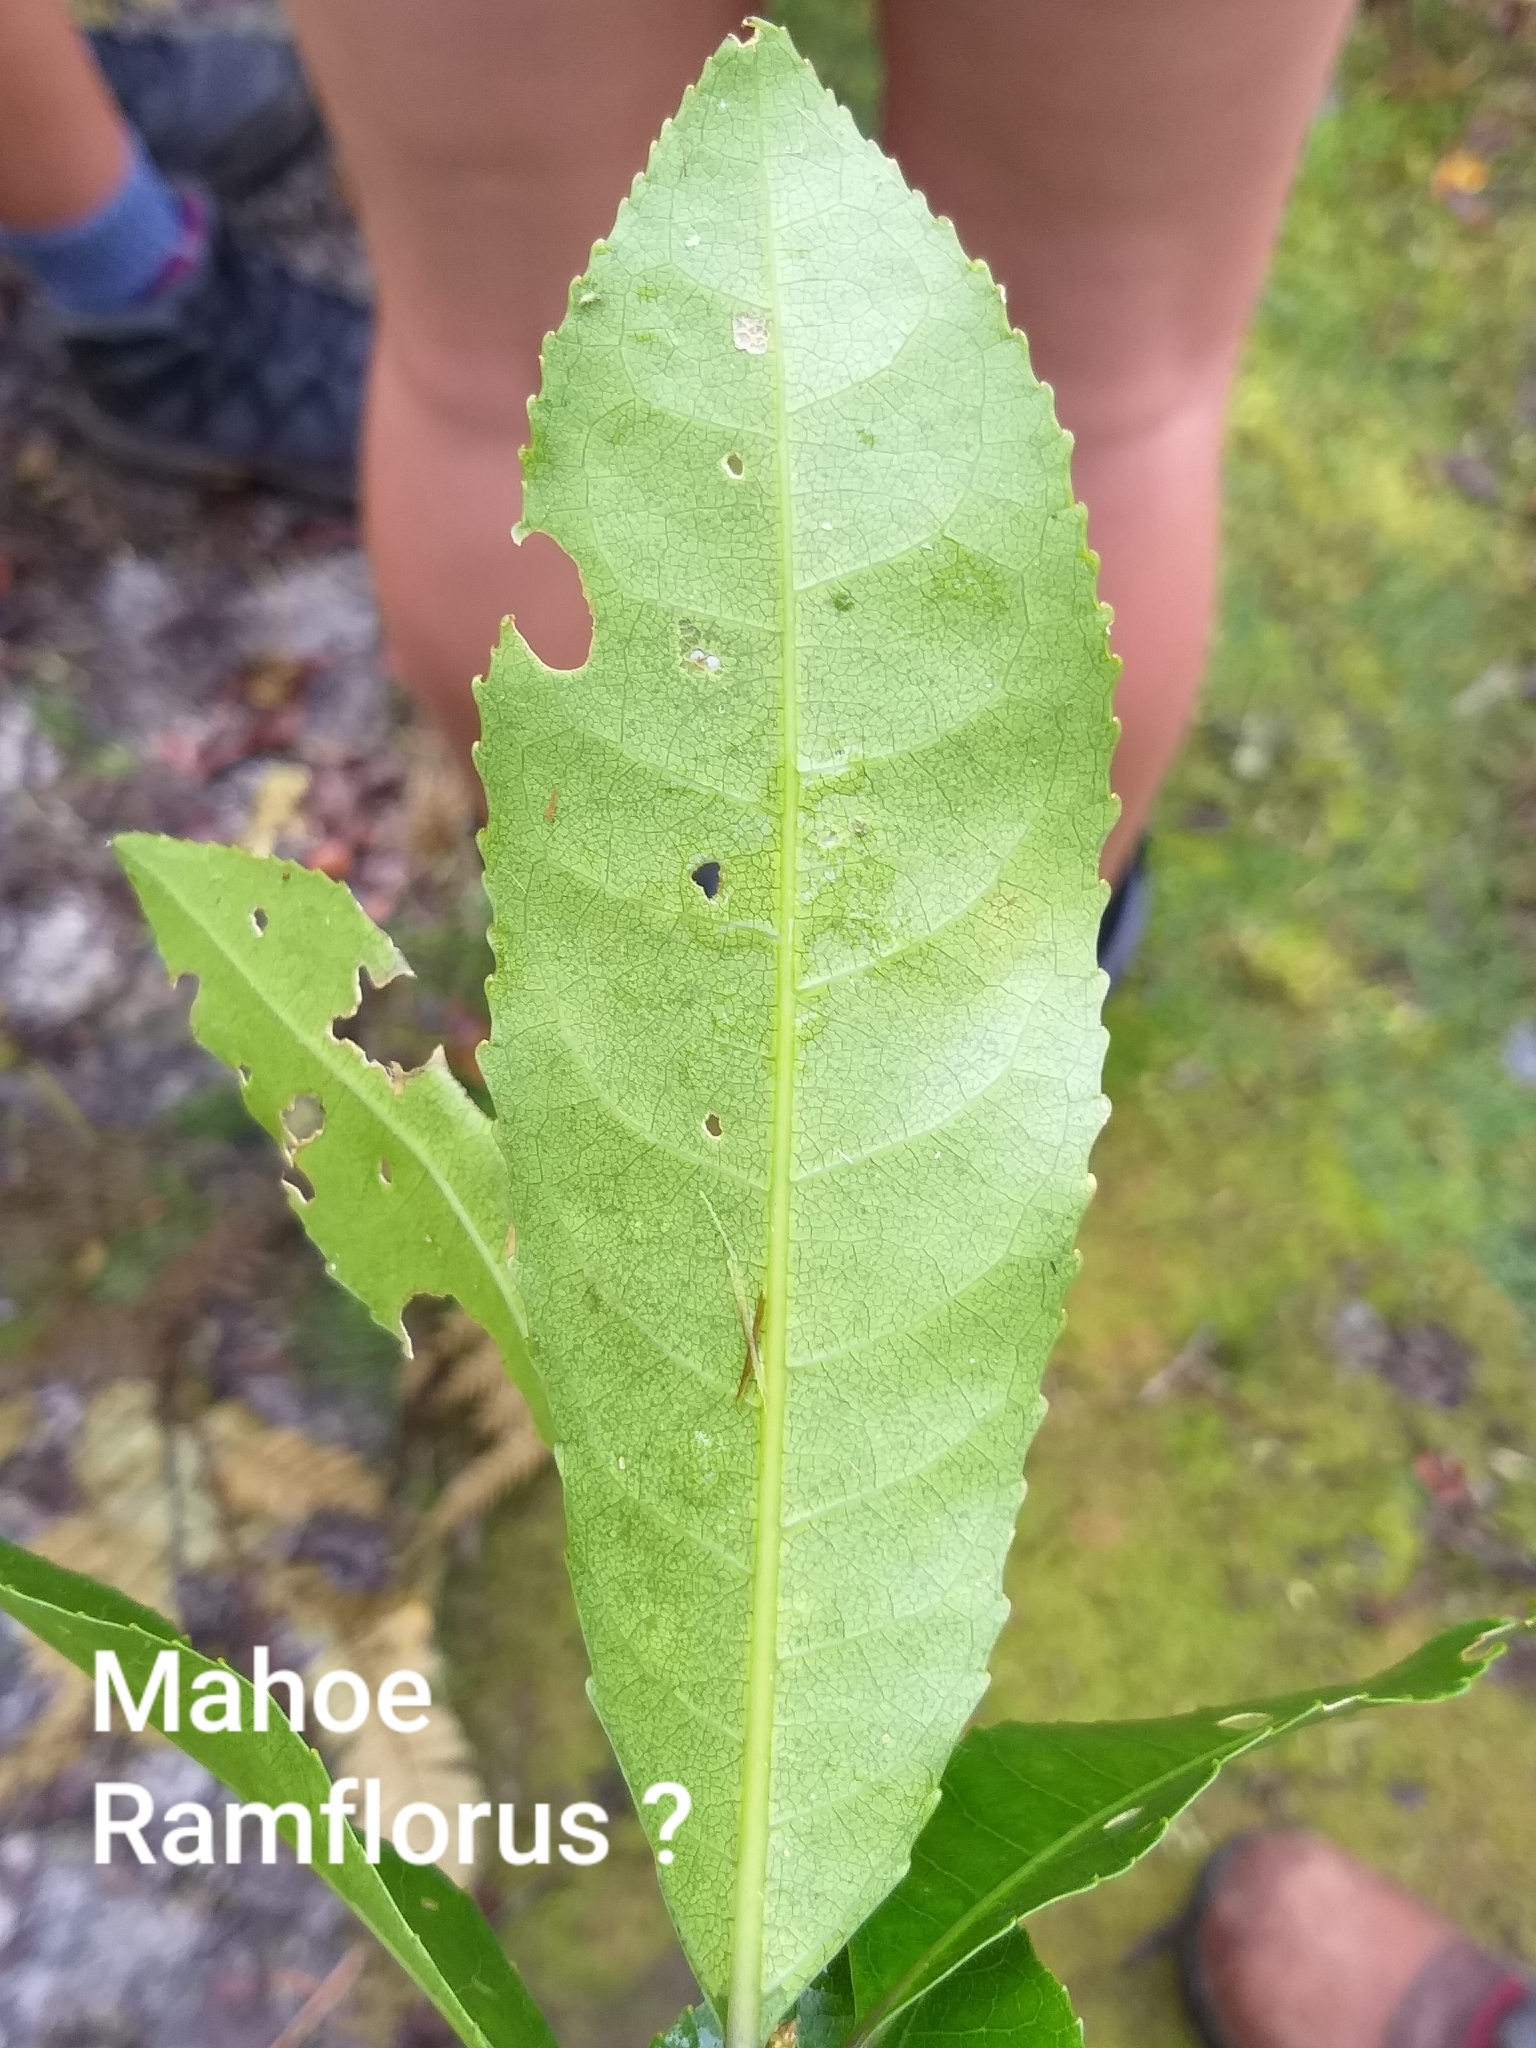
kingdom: Plantae
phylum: Tracheophyta
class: Magnoliopsida
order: Malpighiales
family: Violaceae
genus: Melicytus
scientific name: Melicytus ramiflorus
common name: Mahoe
